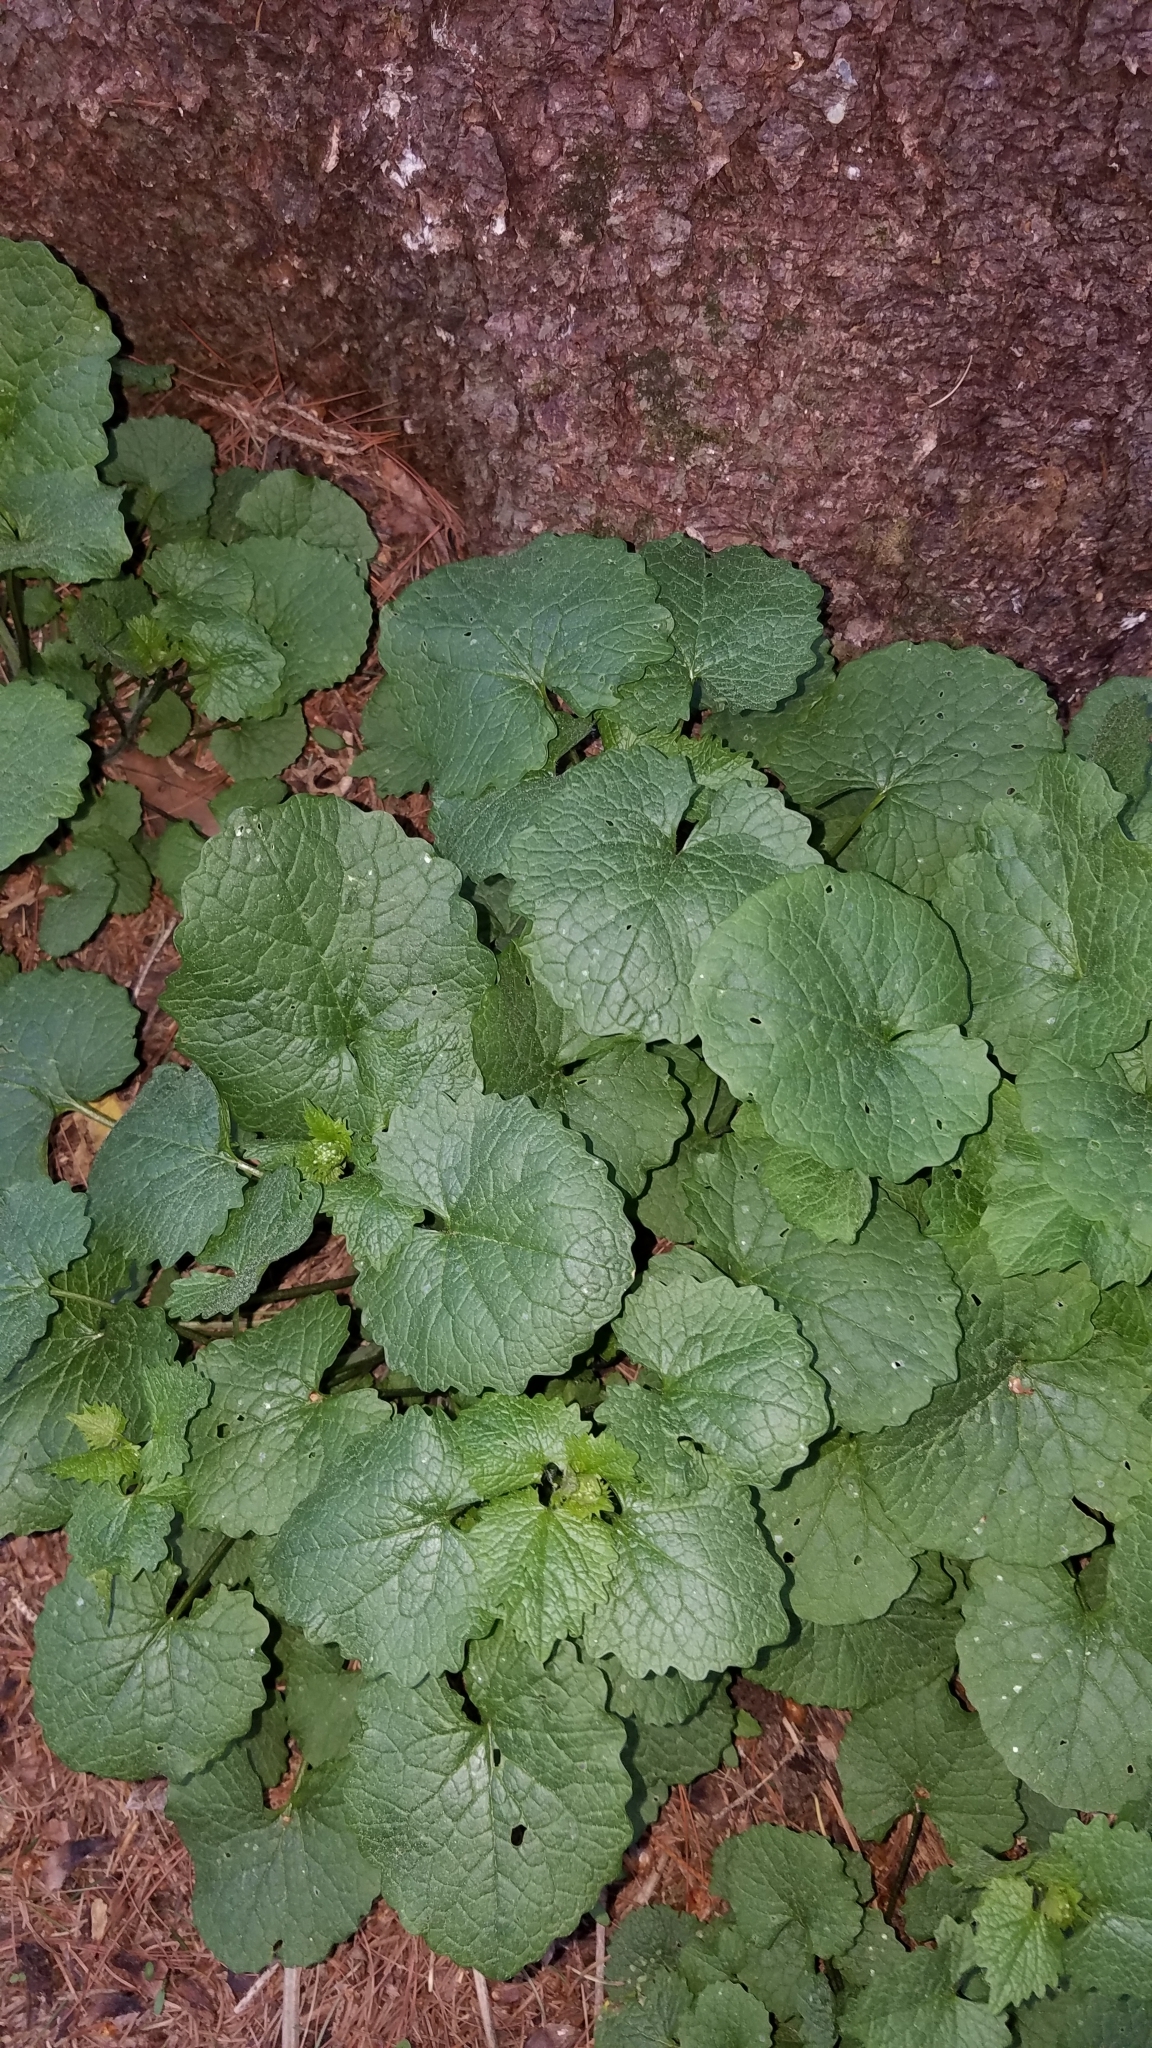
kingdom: Plantae
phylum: Tracheophyta
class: Magnoliopsida
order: Brassicales
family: Brassicaceae
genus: Alliaria
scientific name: Alliaria petiolata
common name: Garlic mustard
